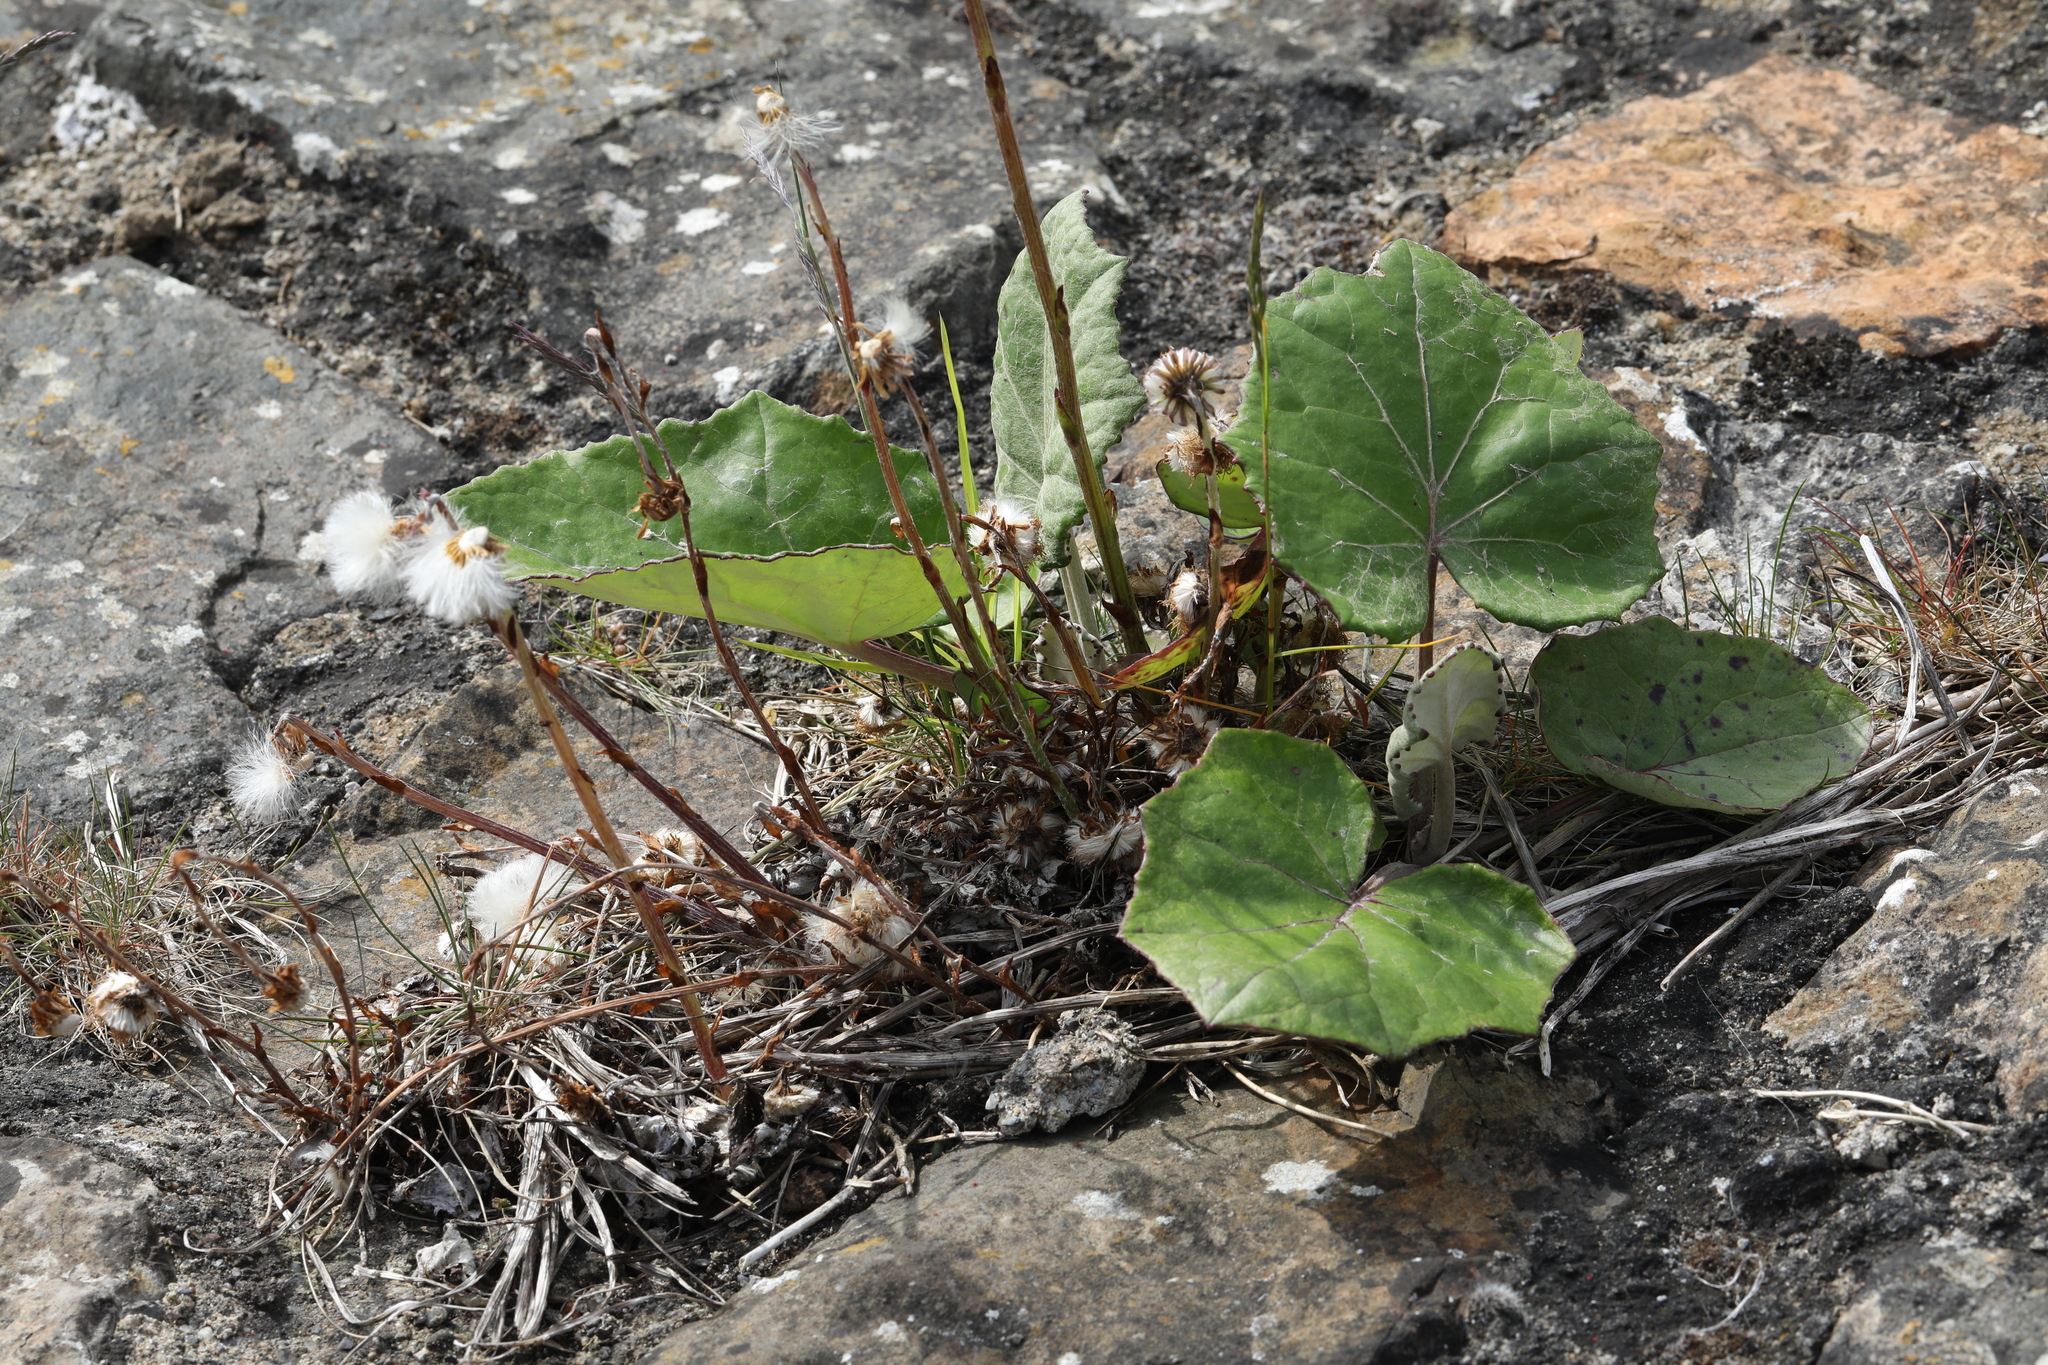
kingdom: Plantae
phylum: Tracheophyta
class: Magnoliopsida
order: Asterales
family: Asteraceae
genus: Tussilago
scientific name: Tussilago farfara
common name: Coltsfoot
